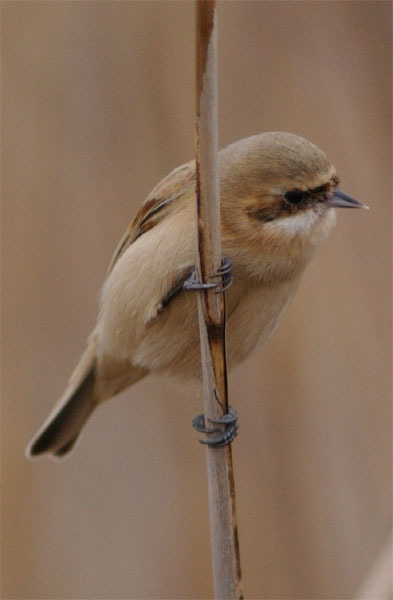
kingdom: Animalia
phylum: Chordata
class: Aves
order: Passeriformes
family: Remizidae
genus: Remiz
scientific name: Remiz consobrinus
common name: Chinese penduline tit
